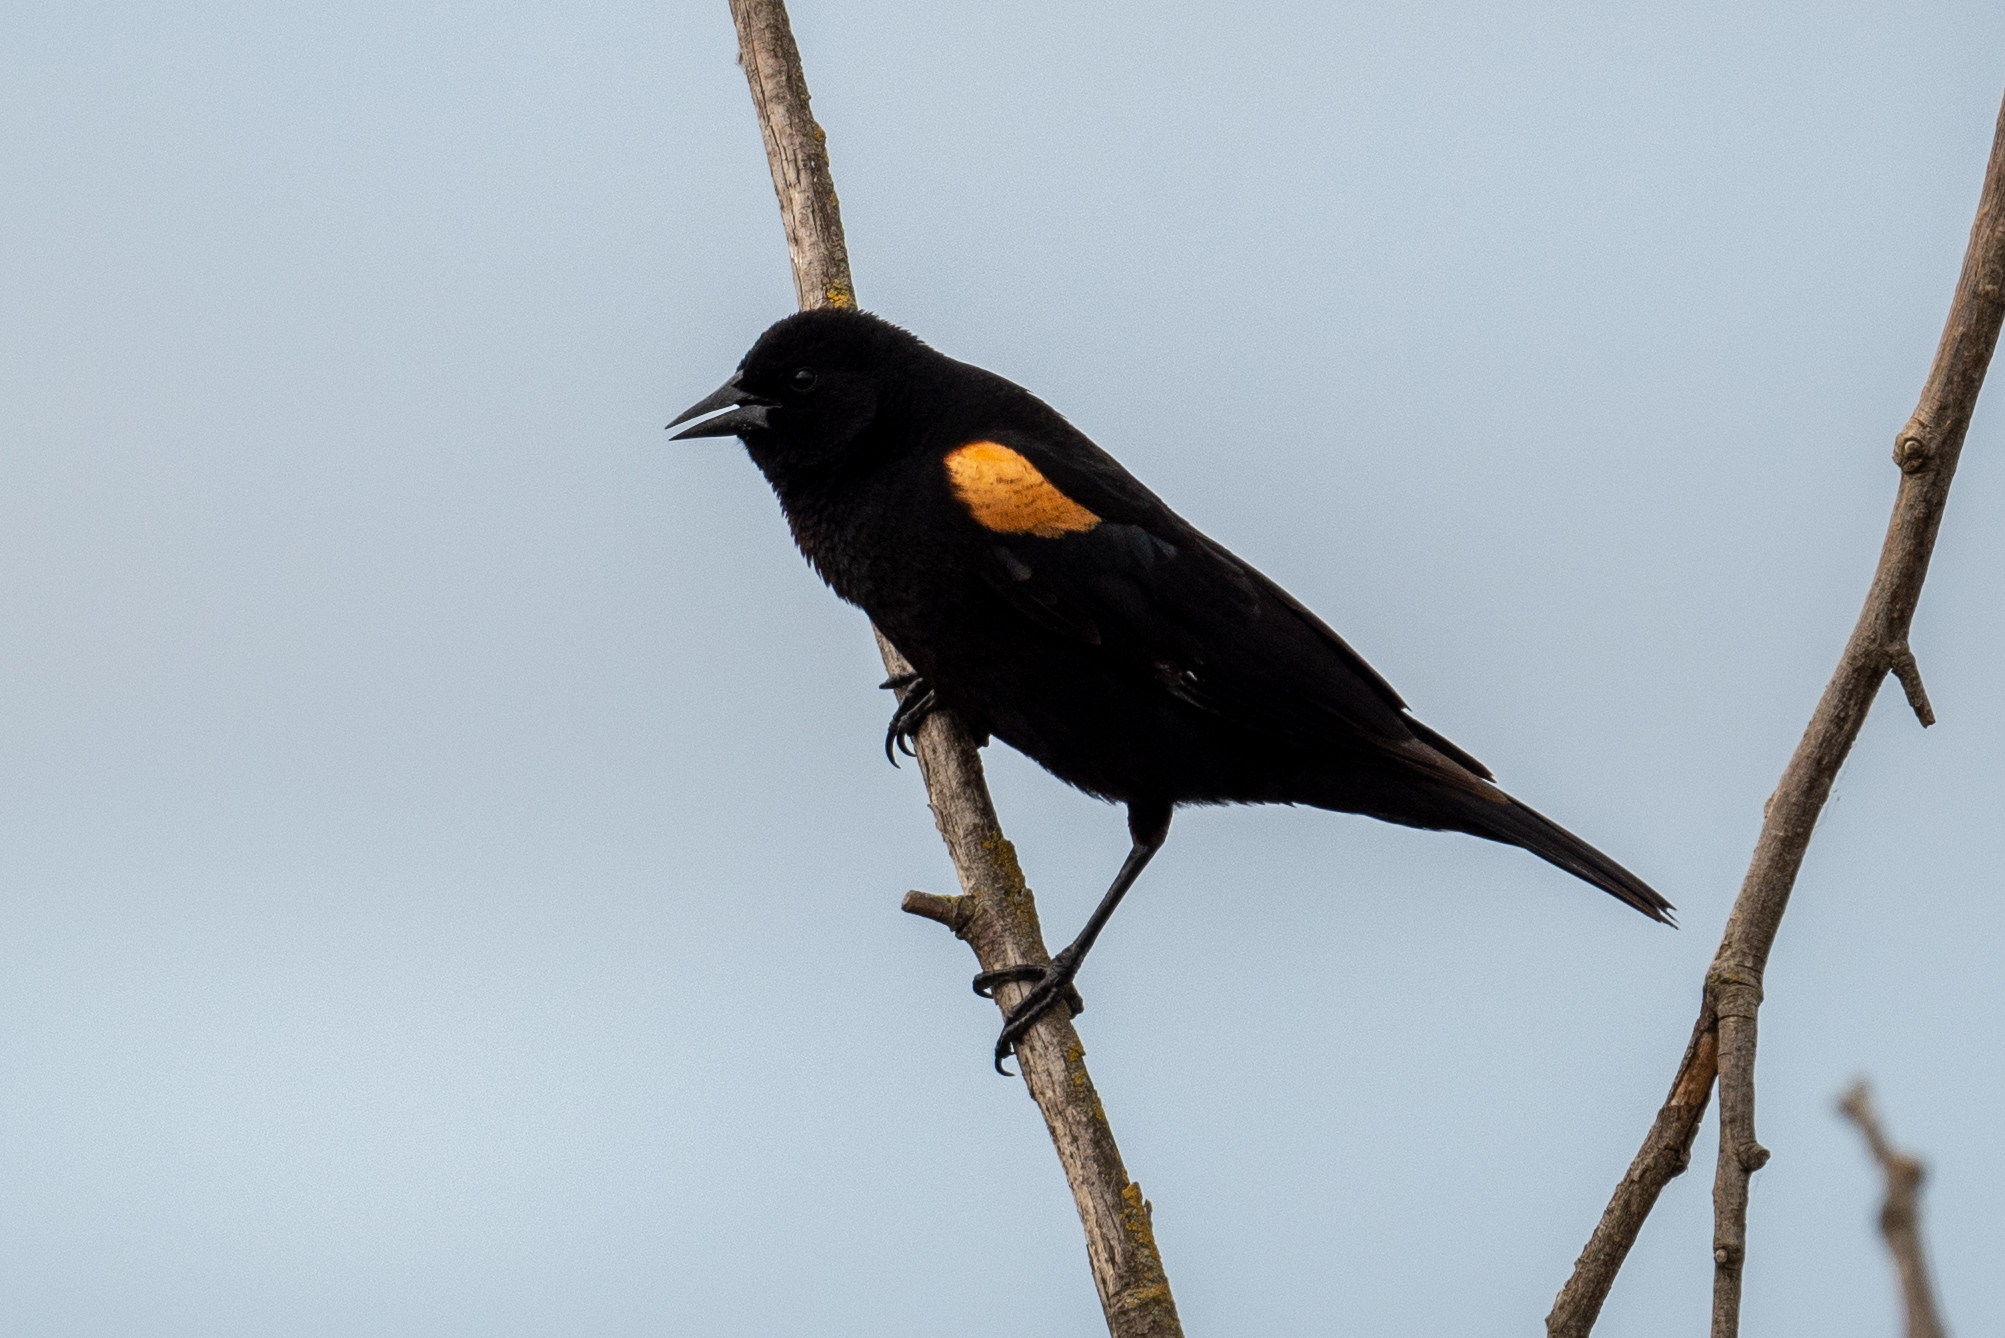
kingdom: Animalia
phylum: Chordata
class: Aves
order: Passeriformes
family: Icteridae
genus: Agelaius
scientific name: Agelaius phoeniceus
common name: Red-winged blackbird
